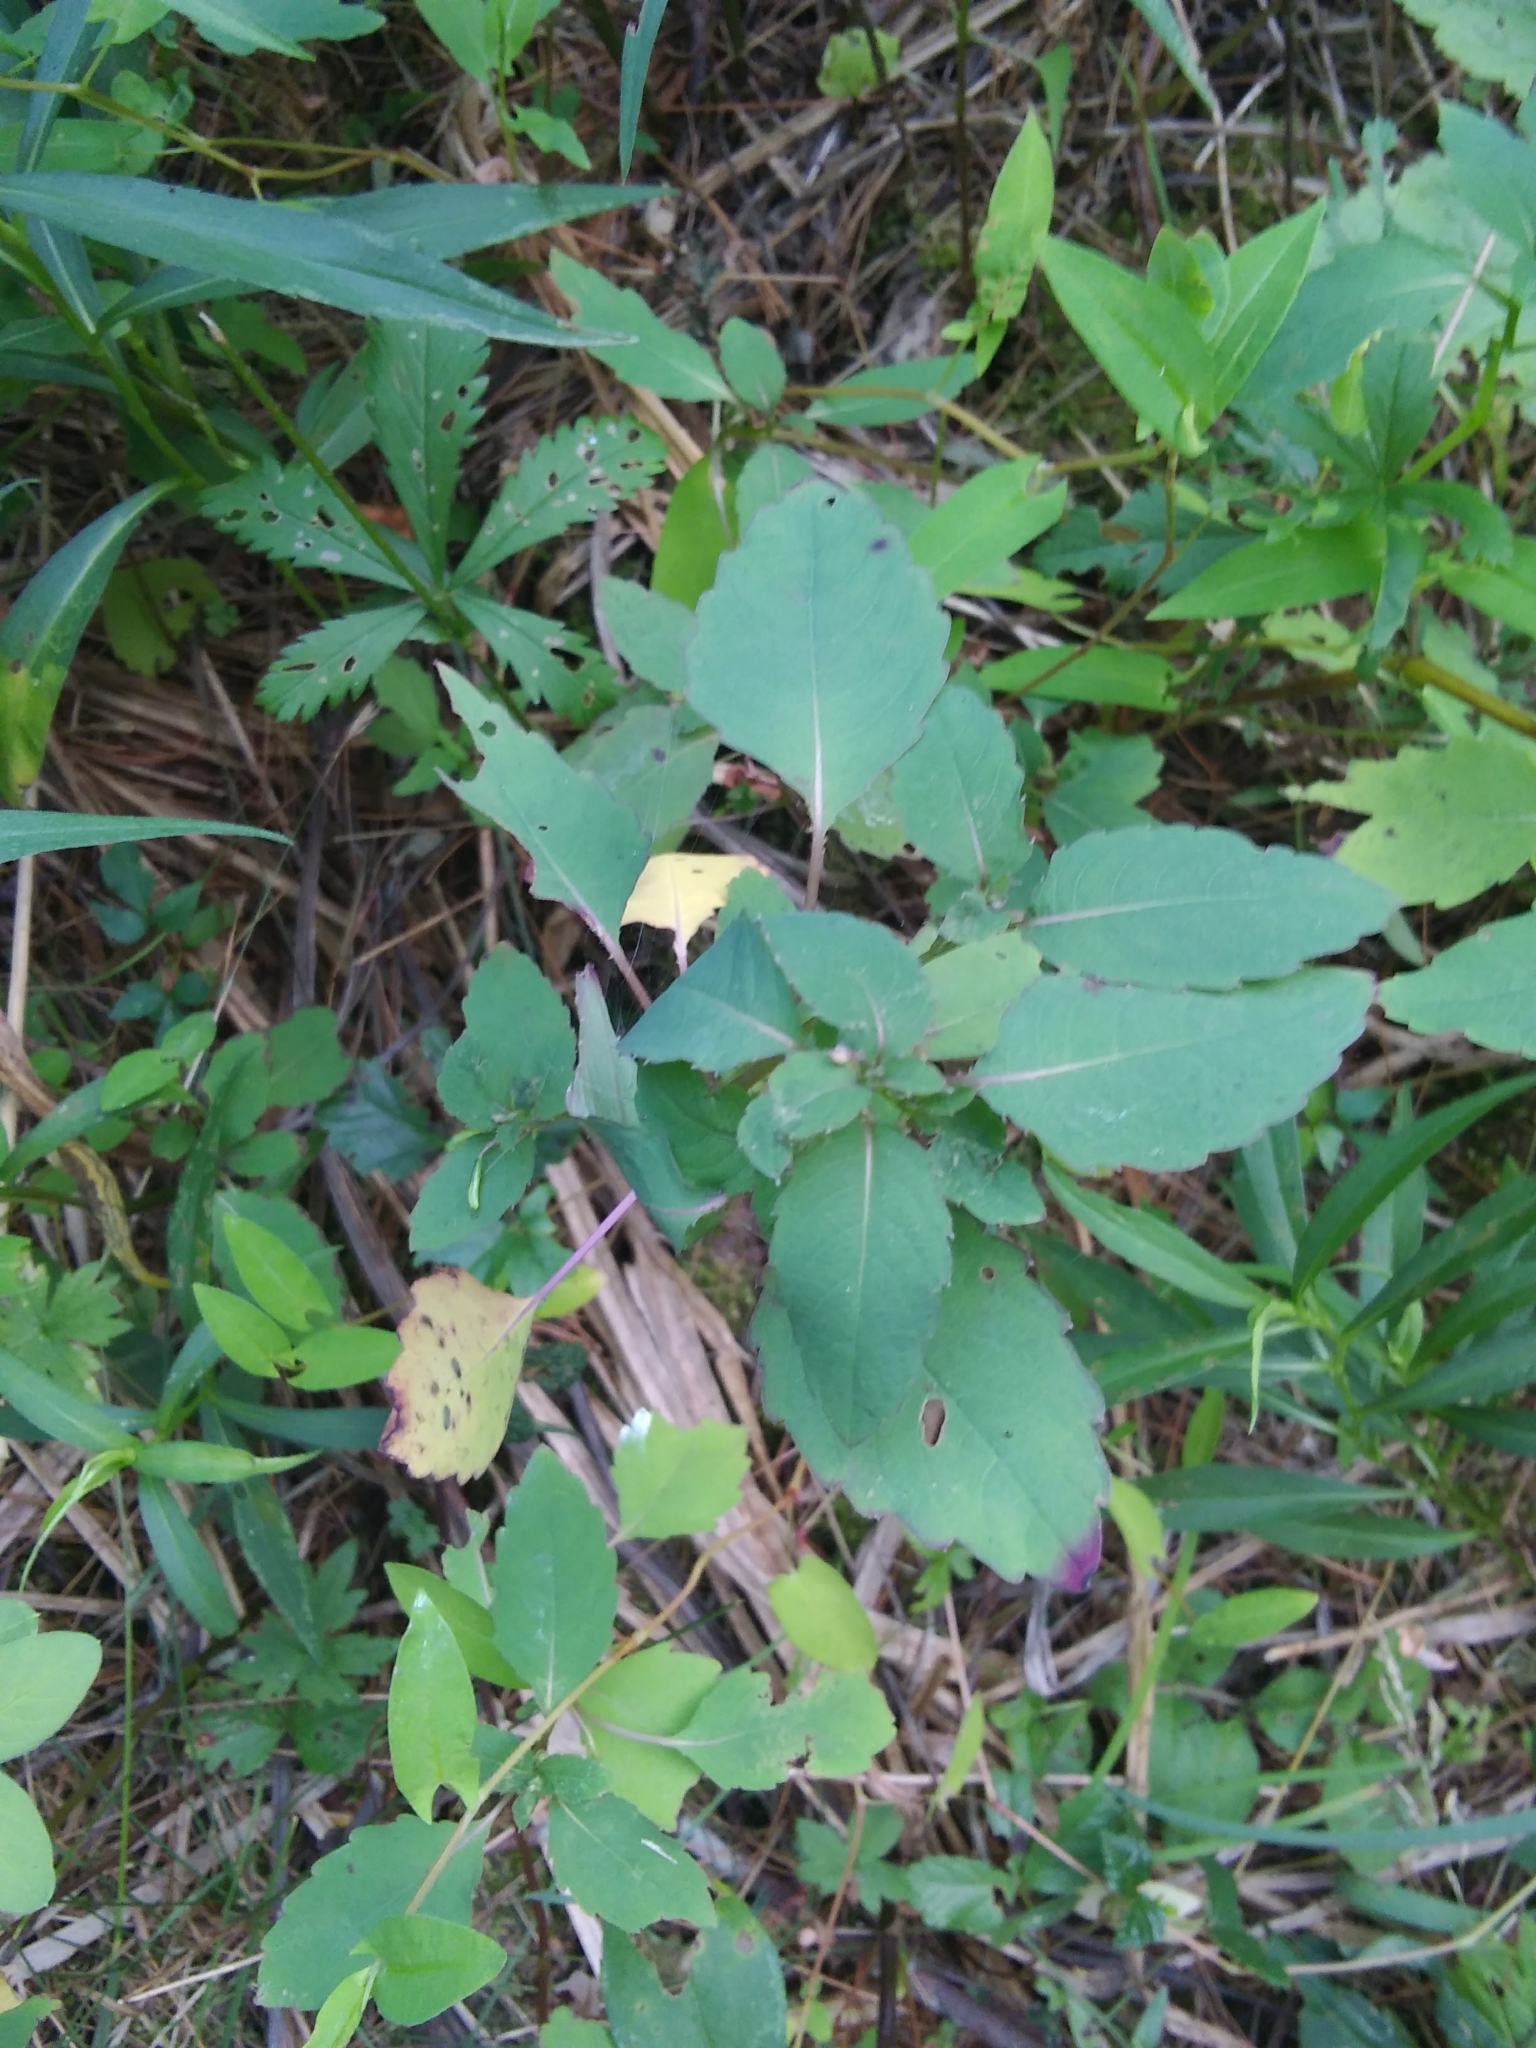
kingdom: Plantae
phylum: Tracheophyta
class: Magnoliopsida
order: Ericales
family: Balsaminaceae
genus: Impatiens
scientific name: Impatiens
